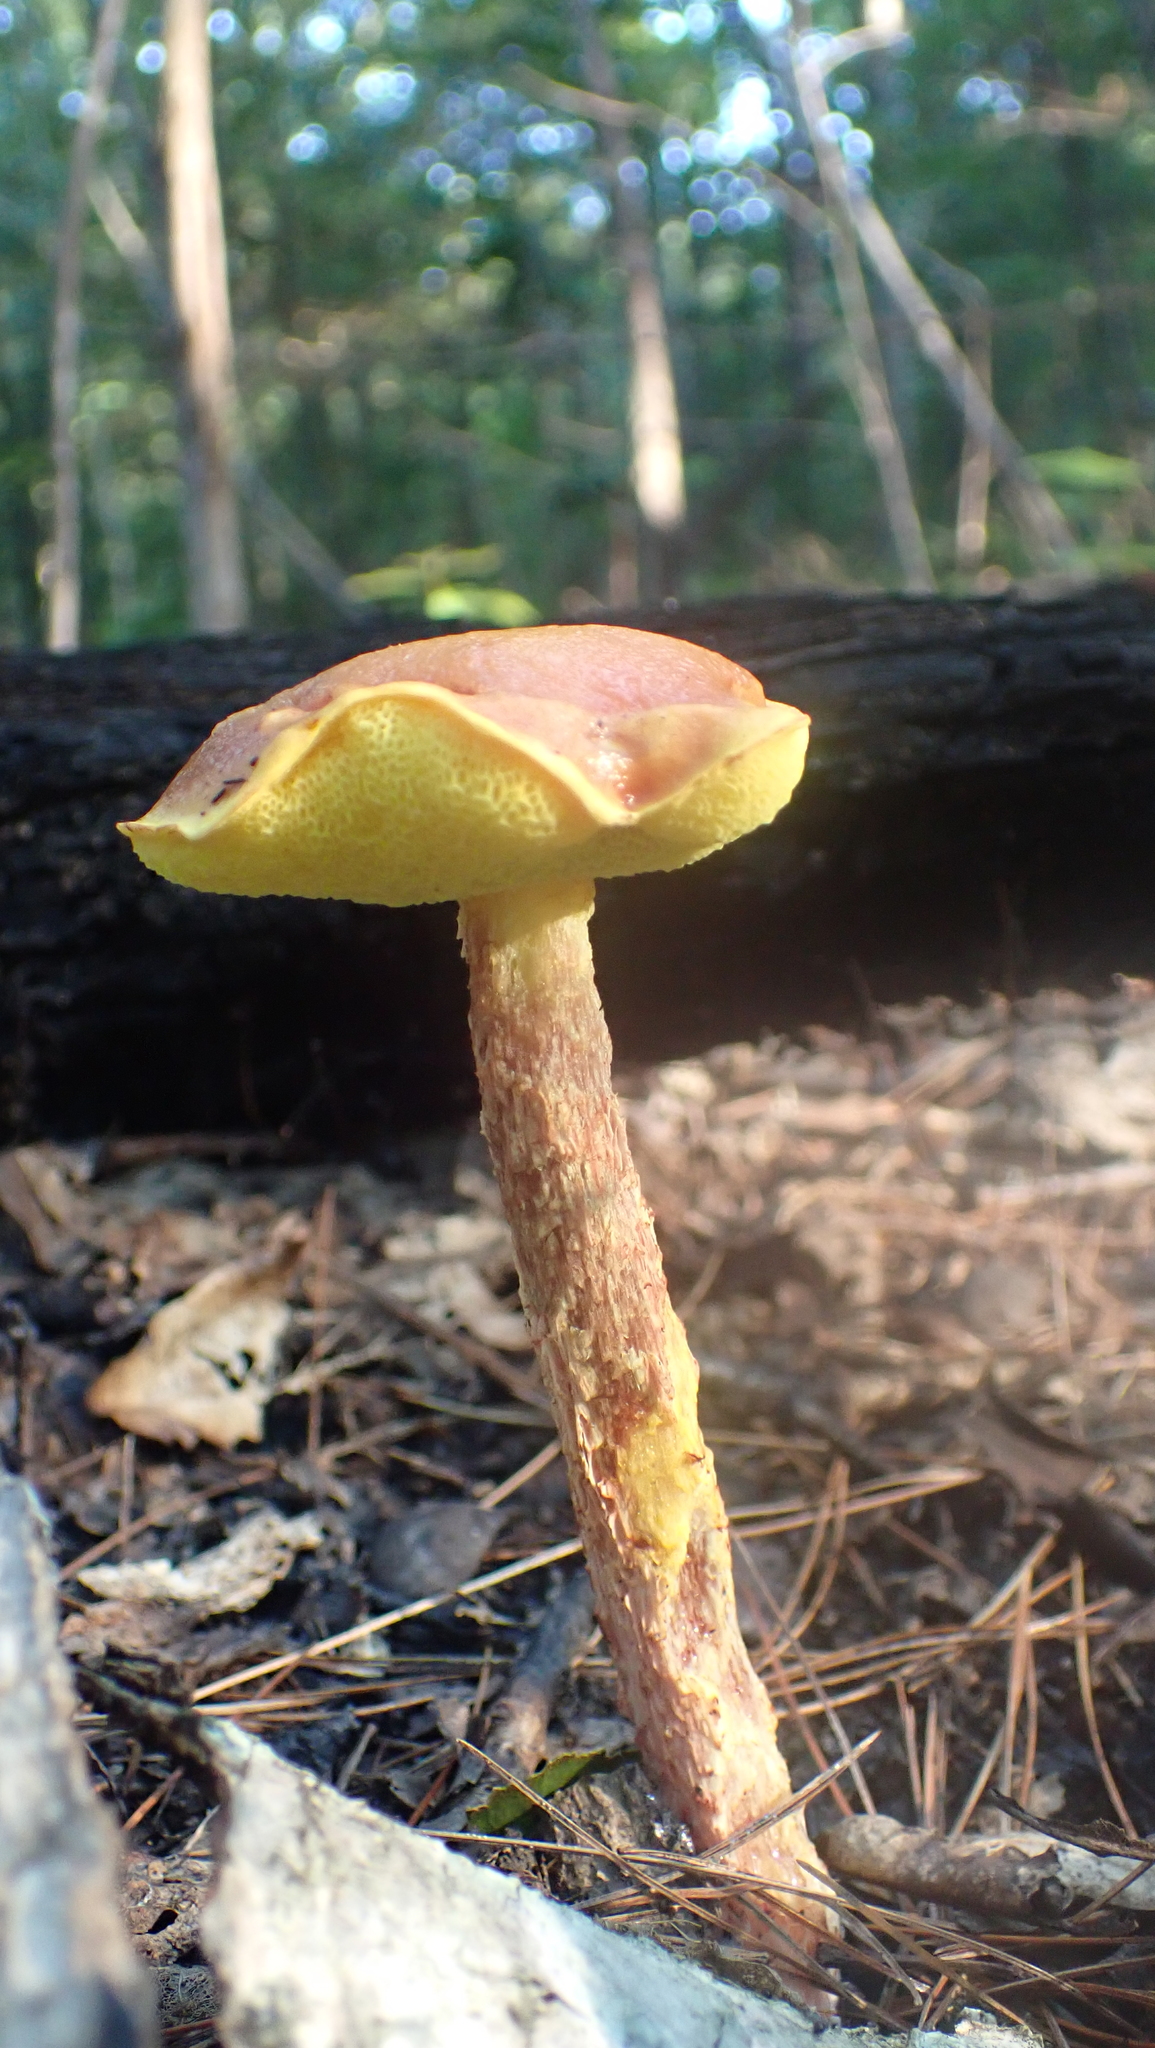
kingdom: Fungi
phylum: Basidiomycota
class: Agaricomycetes
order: Boletales
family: Boletaceae
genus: Aureoboletus
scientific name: Aureoboletus betula
